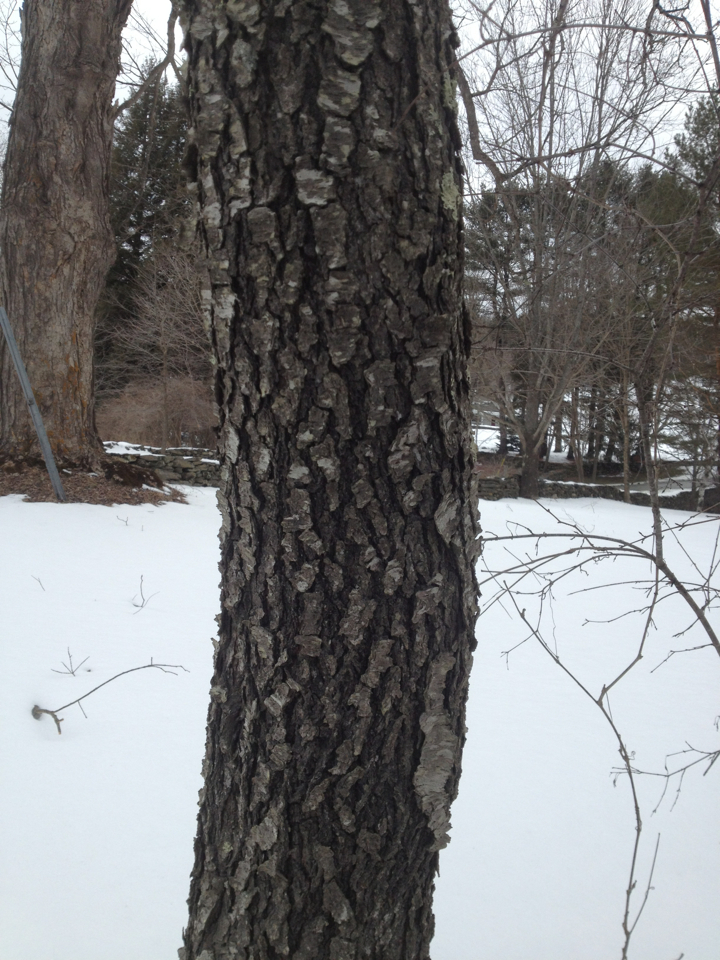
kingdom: Plantae
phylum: Tracheophyta
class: Magnoliopsida
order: Rosales
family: Rosaceae
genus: Prunus
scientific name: Prunus serotina
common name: Black cherry
